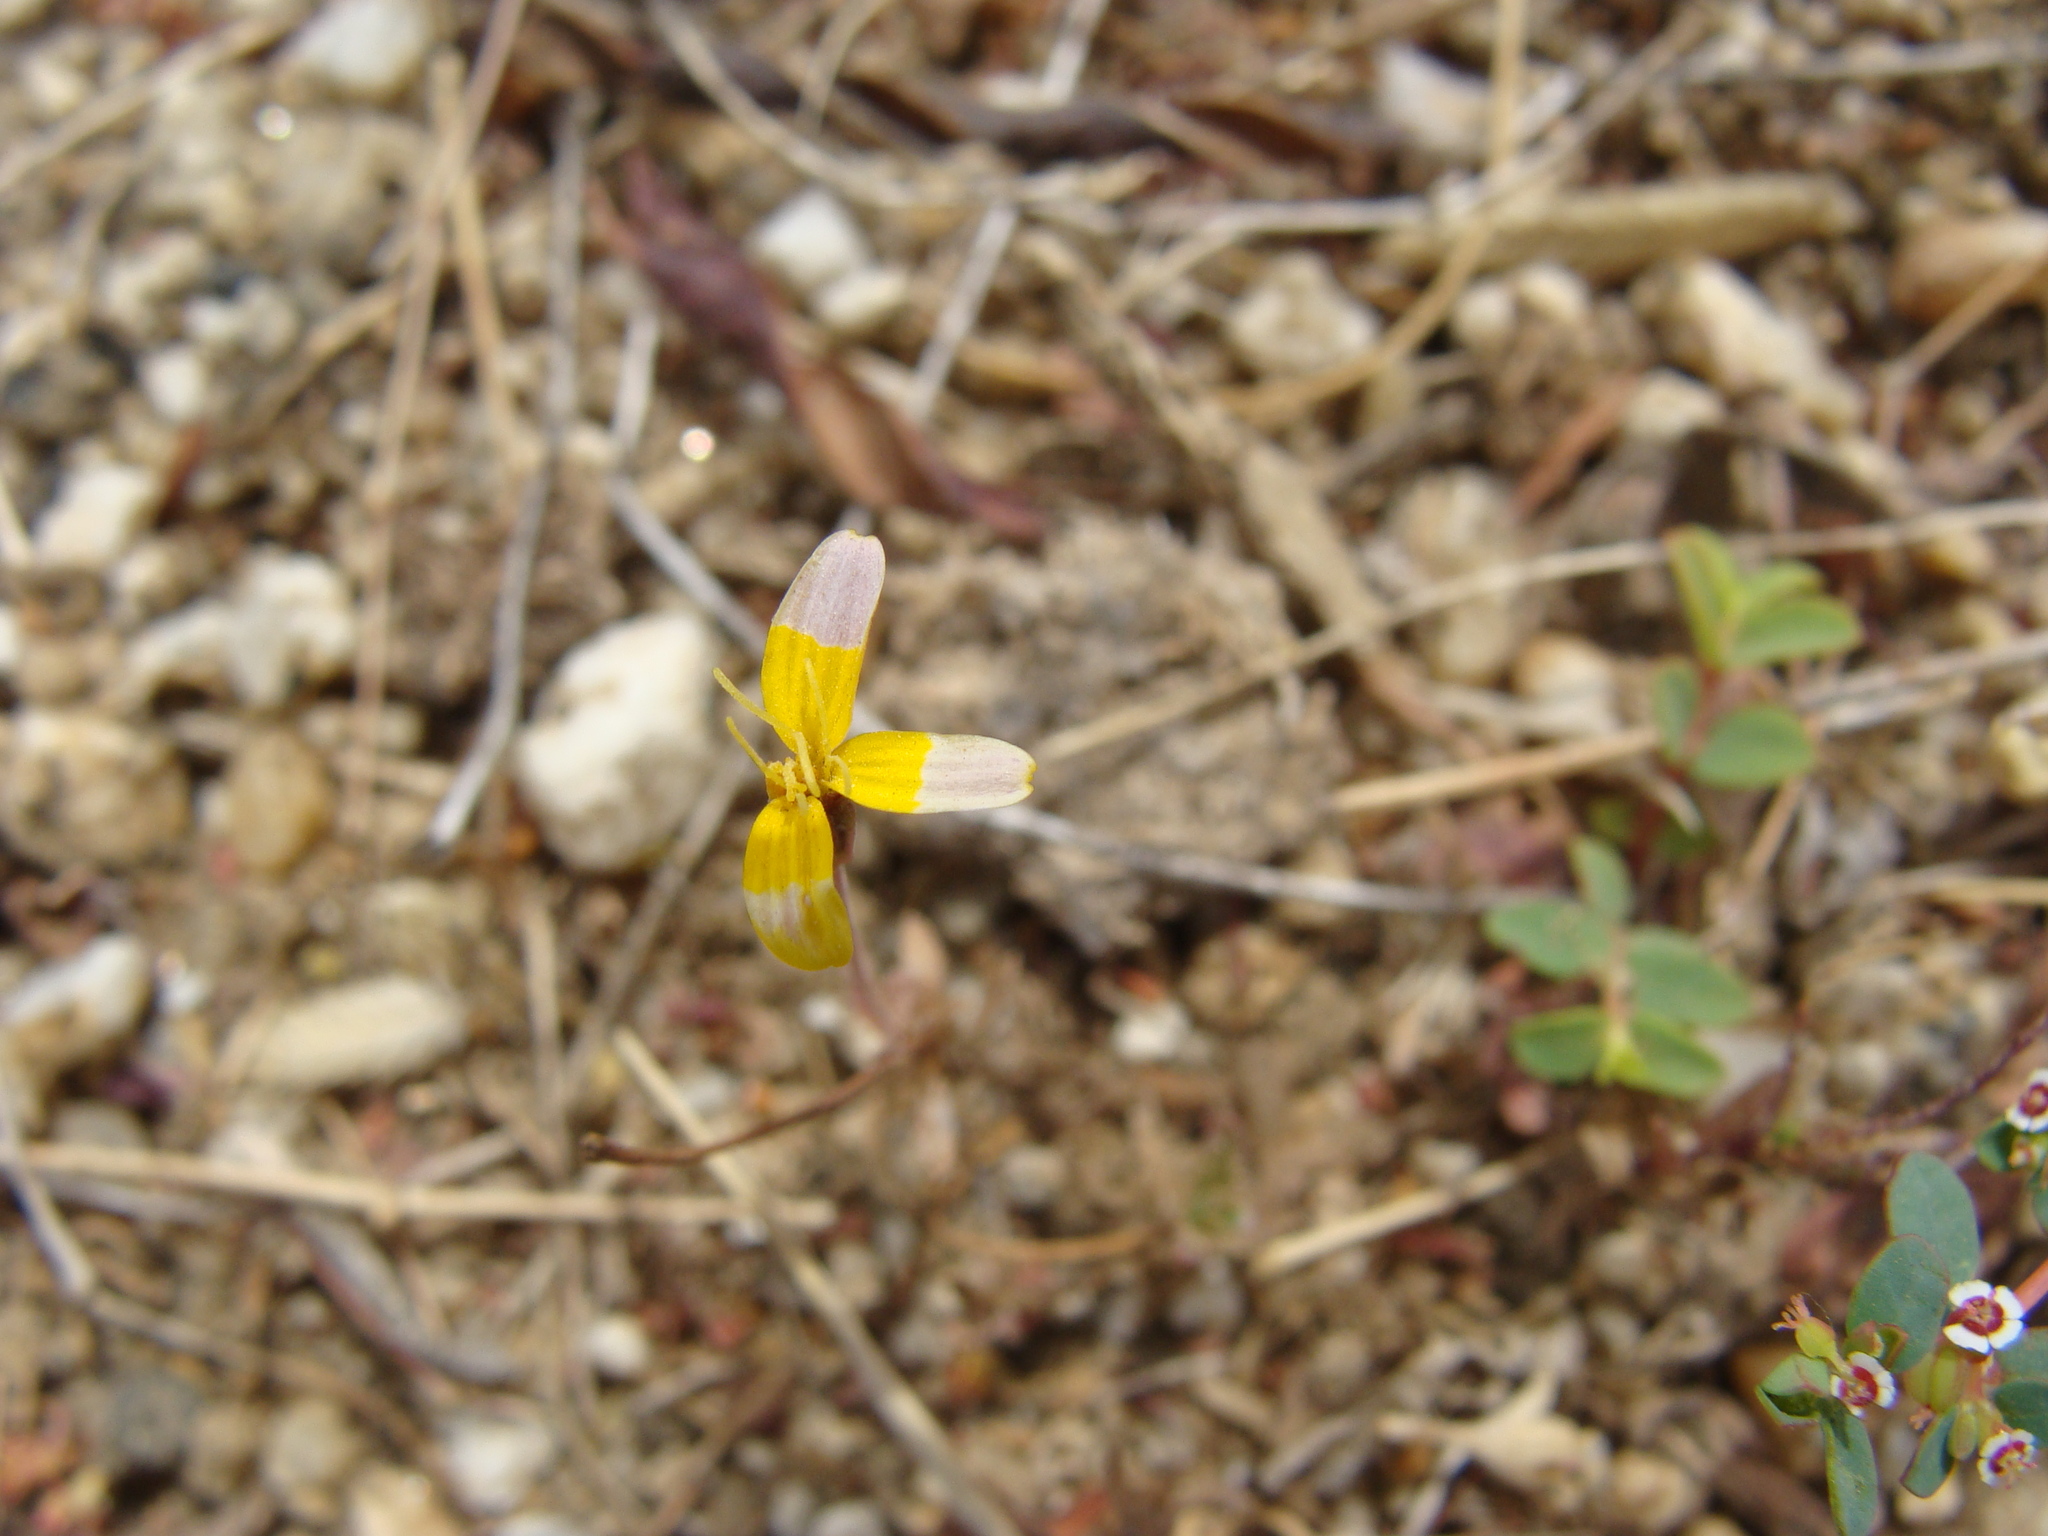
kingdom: Plantae
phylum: Tracheophyta
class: Magnoliopsida
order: Asterales
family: Asteraceae
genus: Bidens
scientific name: Bidens xanti
